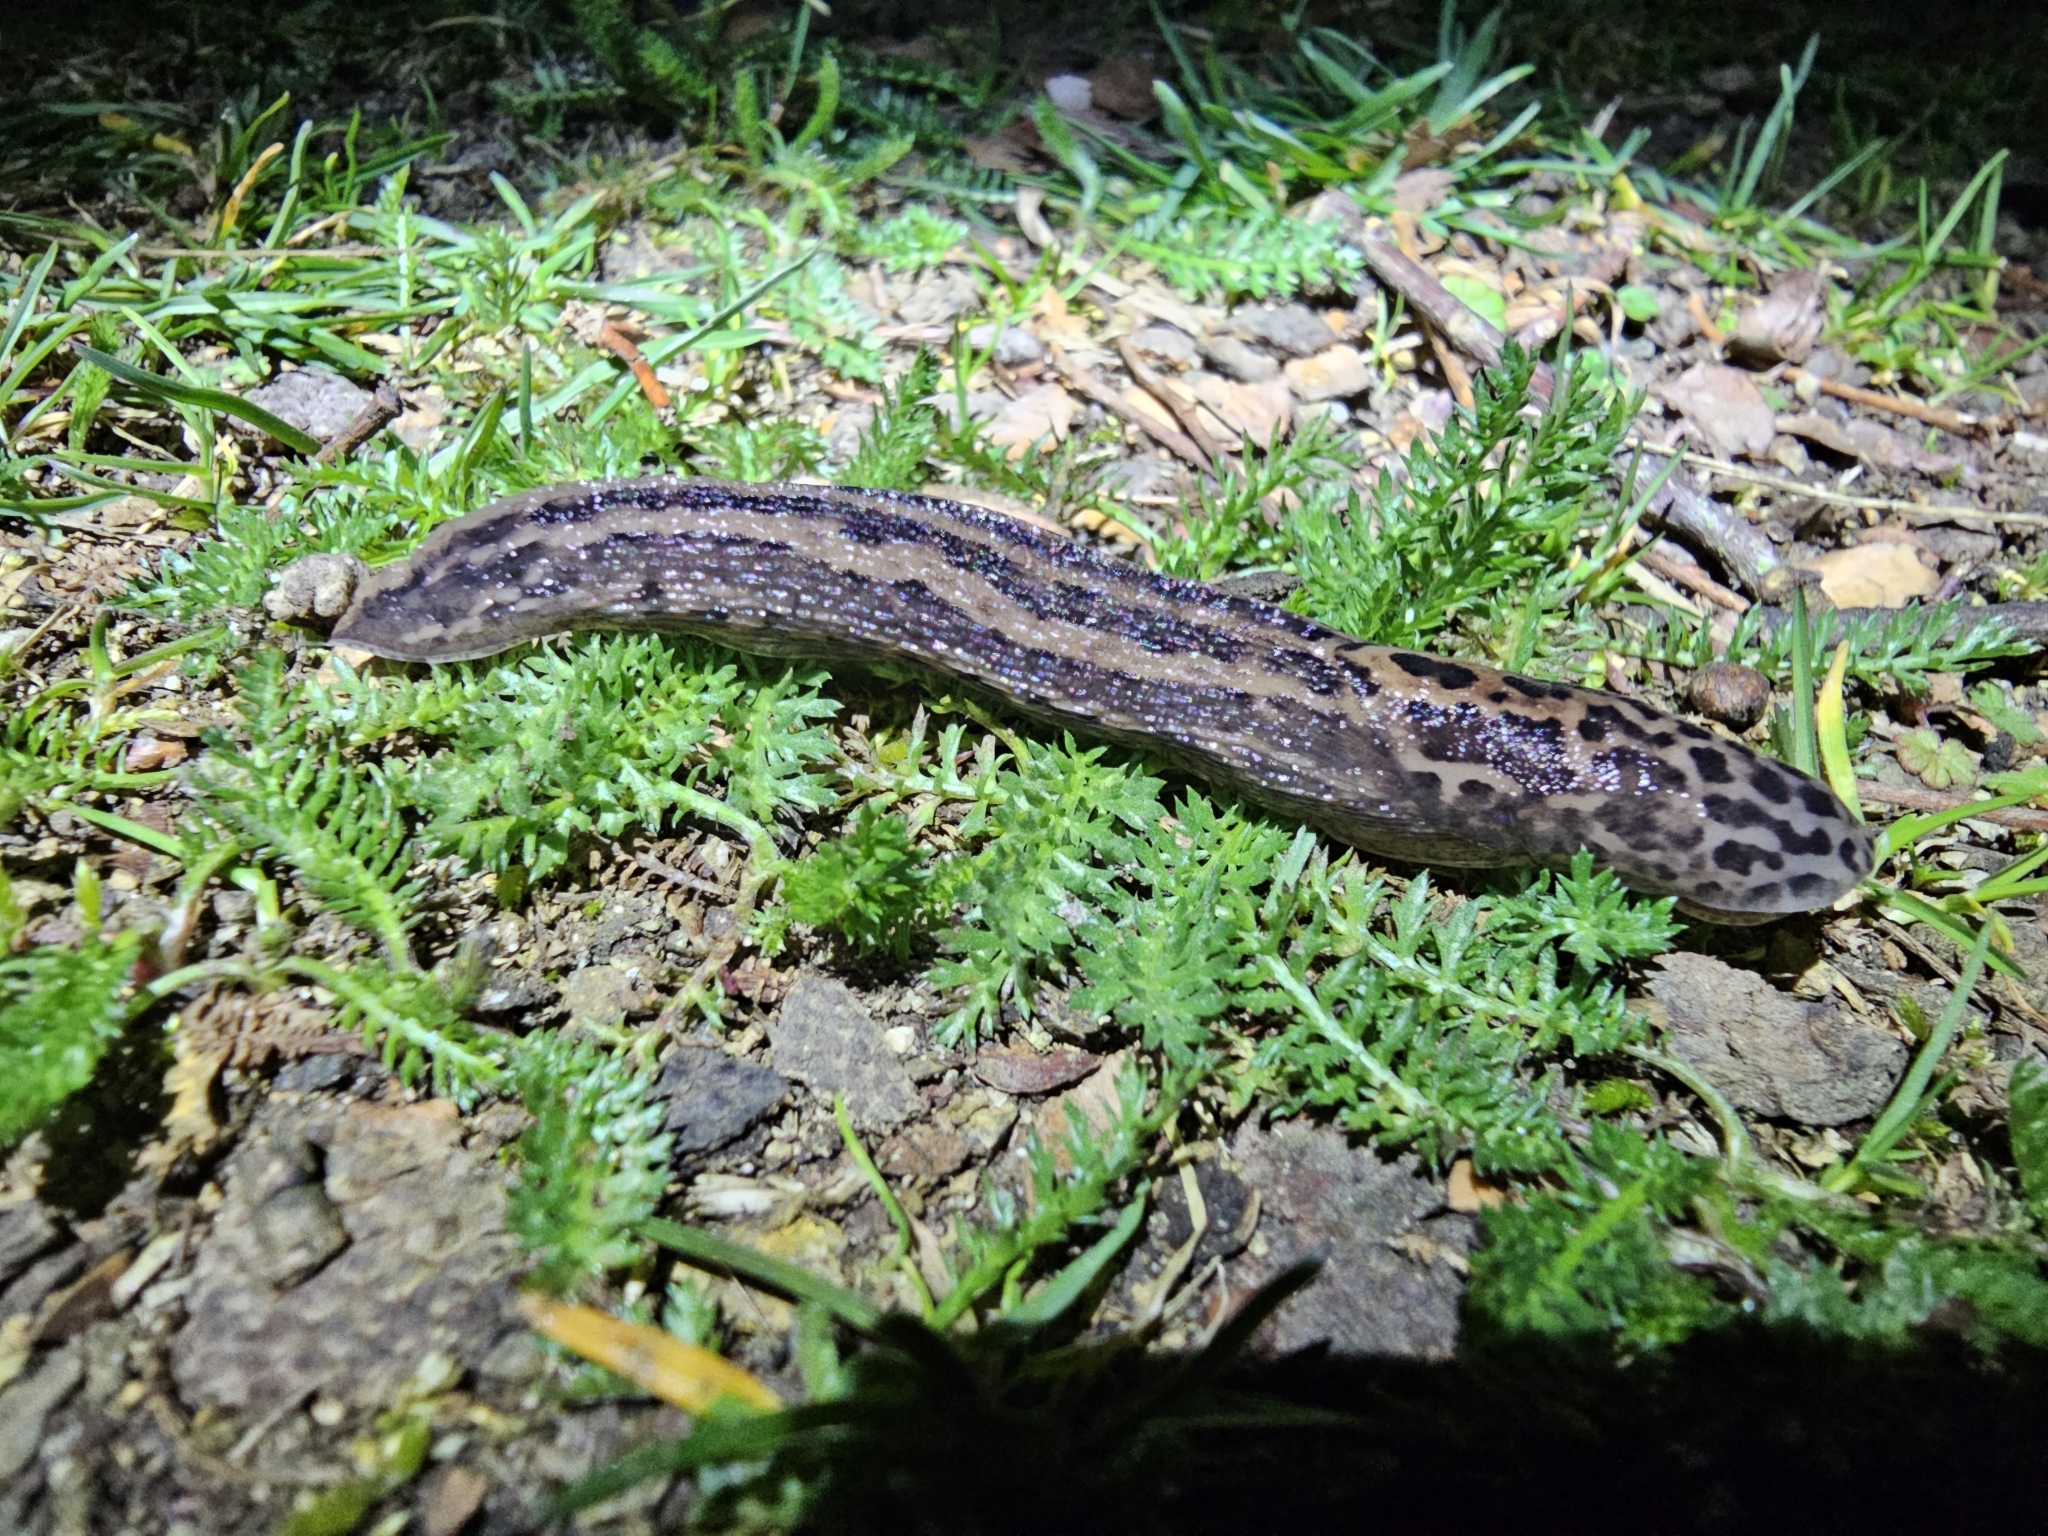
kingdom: Animalia
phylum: Mollusca
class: Gastropoda
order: Stylommatophora
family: Limacidae
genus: Limax
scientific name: Limax maximus
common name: Great grey slug
